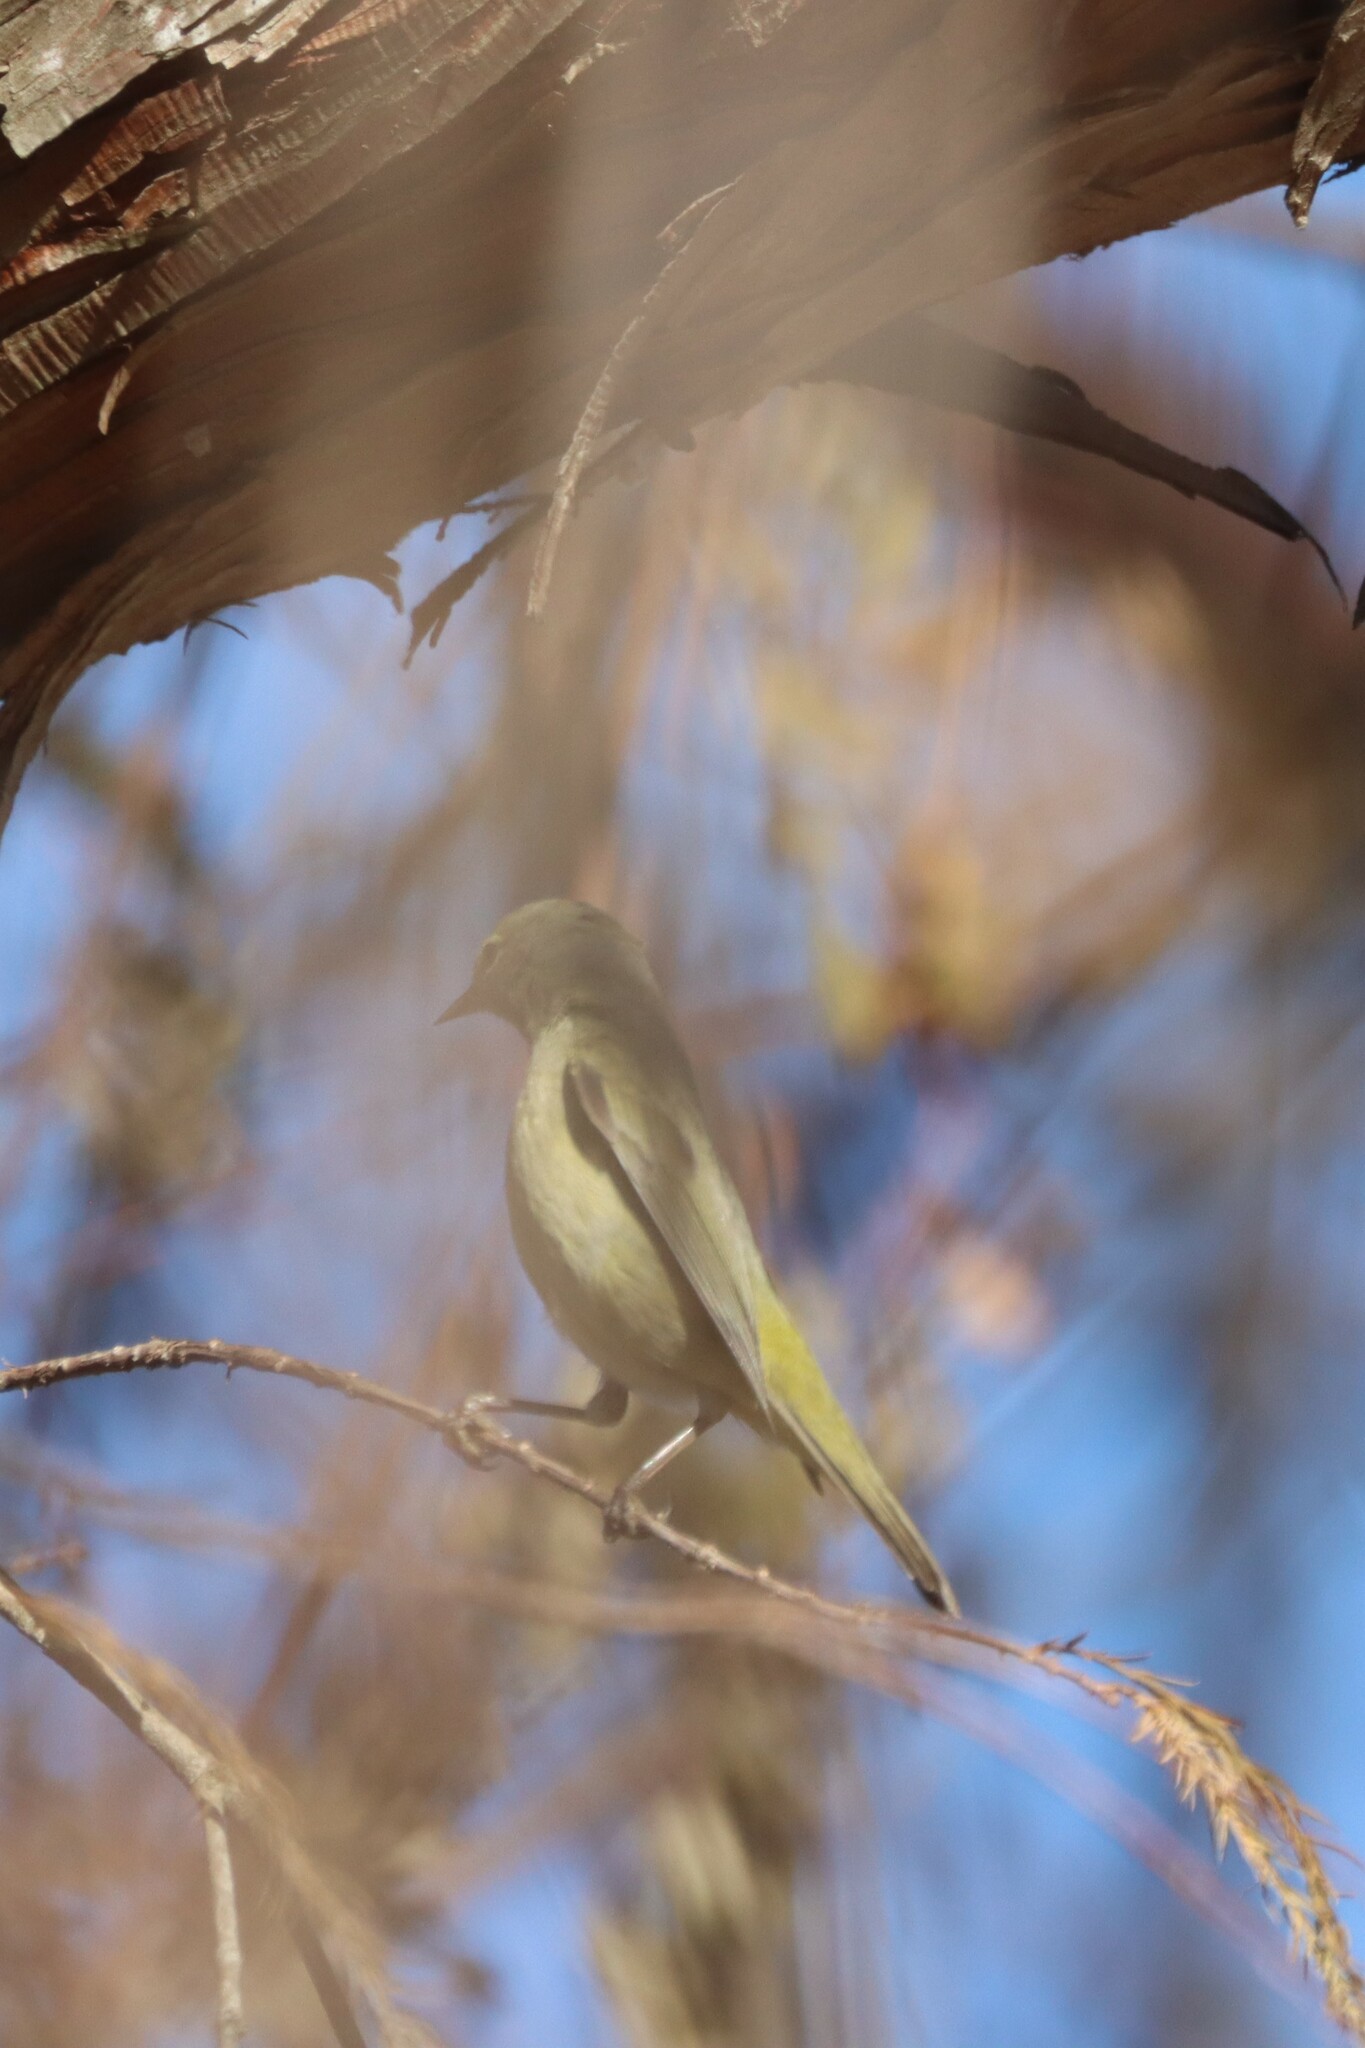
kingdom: Animalia
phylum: Chordata
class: Aves
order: Passeriformes
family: Parulidae
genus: Leiothlypis
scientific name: Leiothlypis celata
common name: Orange-crowned warbler
